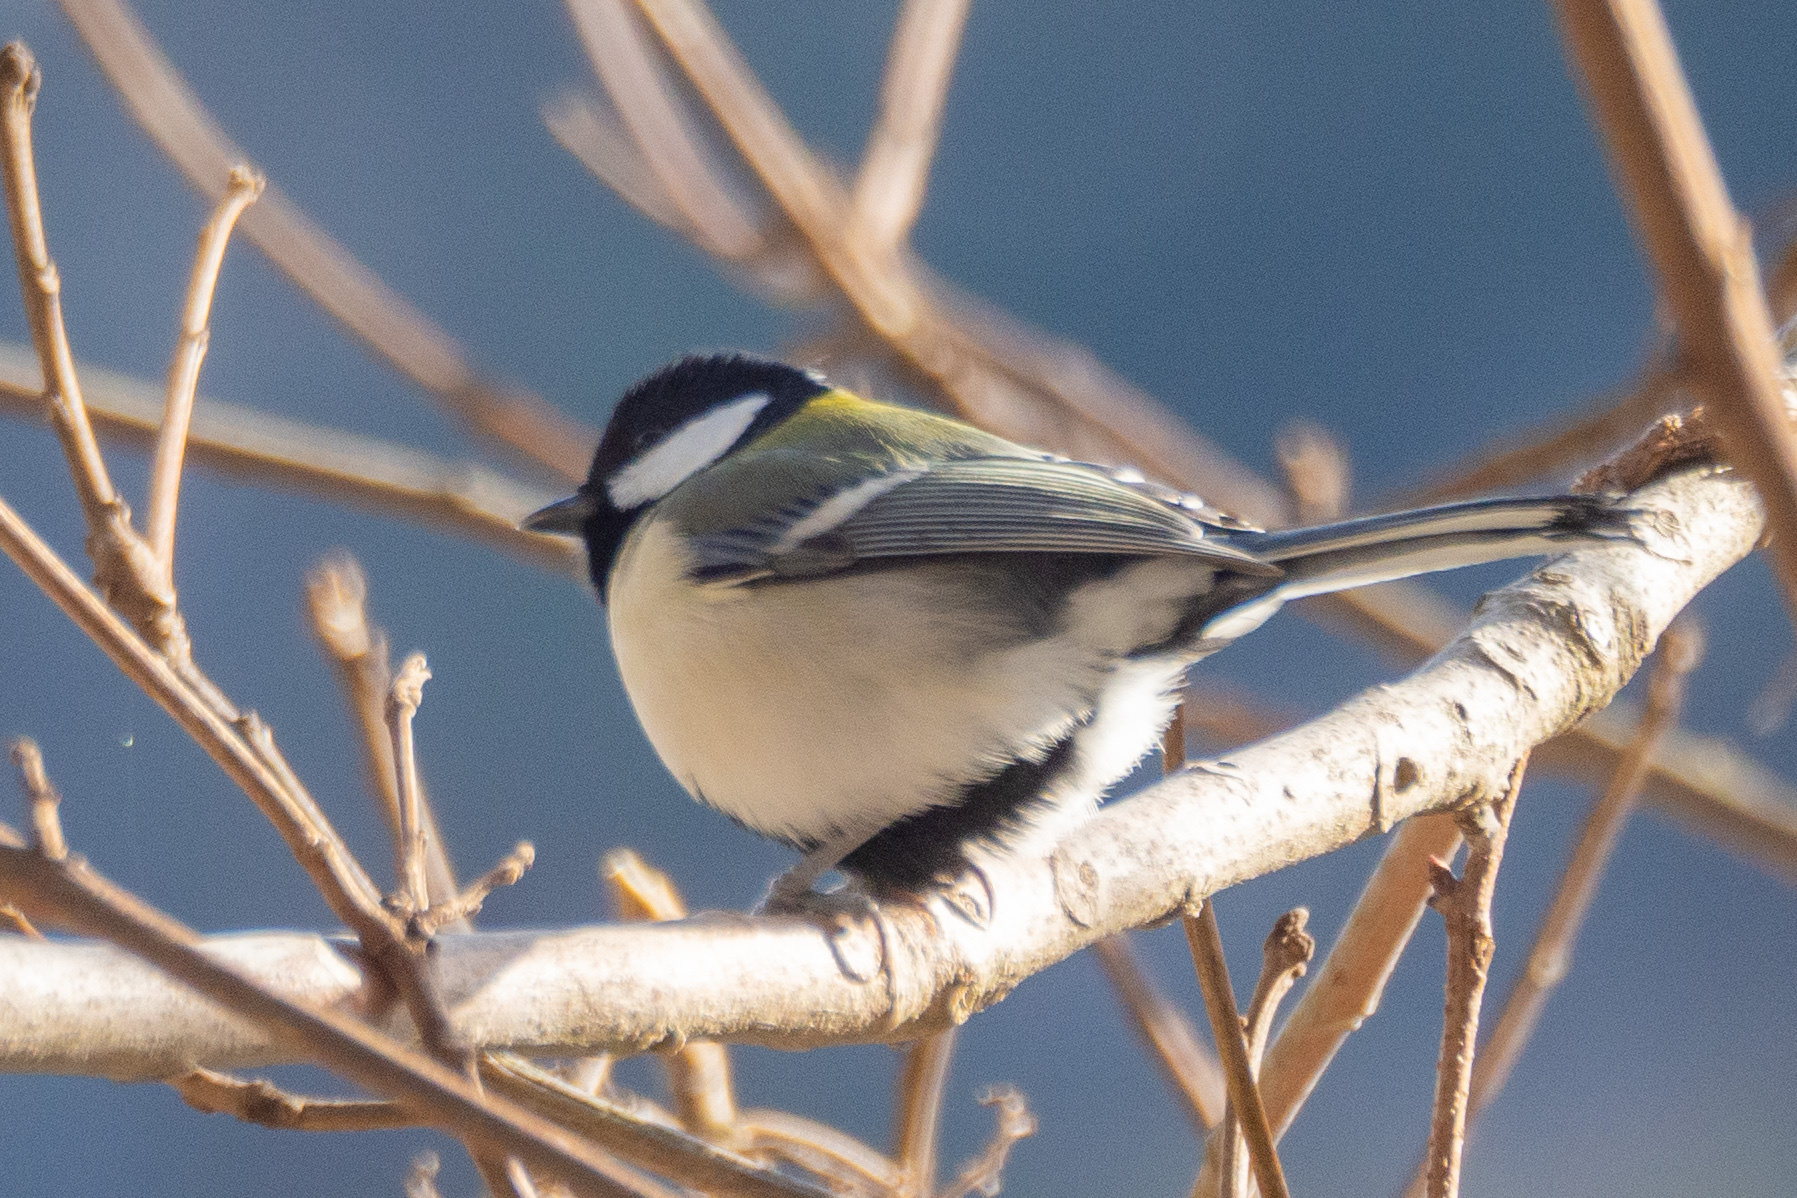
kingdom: Animalia
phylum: Chordata
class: Aves
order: Passeriformes
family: Paridae
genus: Parus
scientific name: Parus minor
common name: Japanese tit
